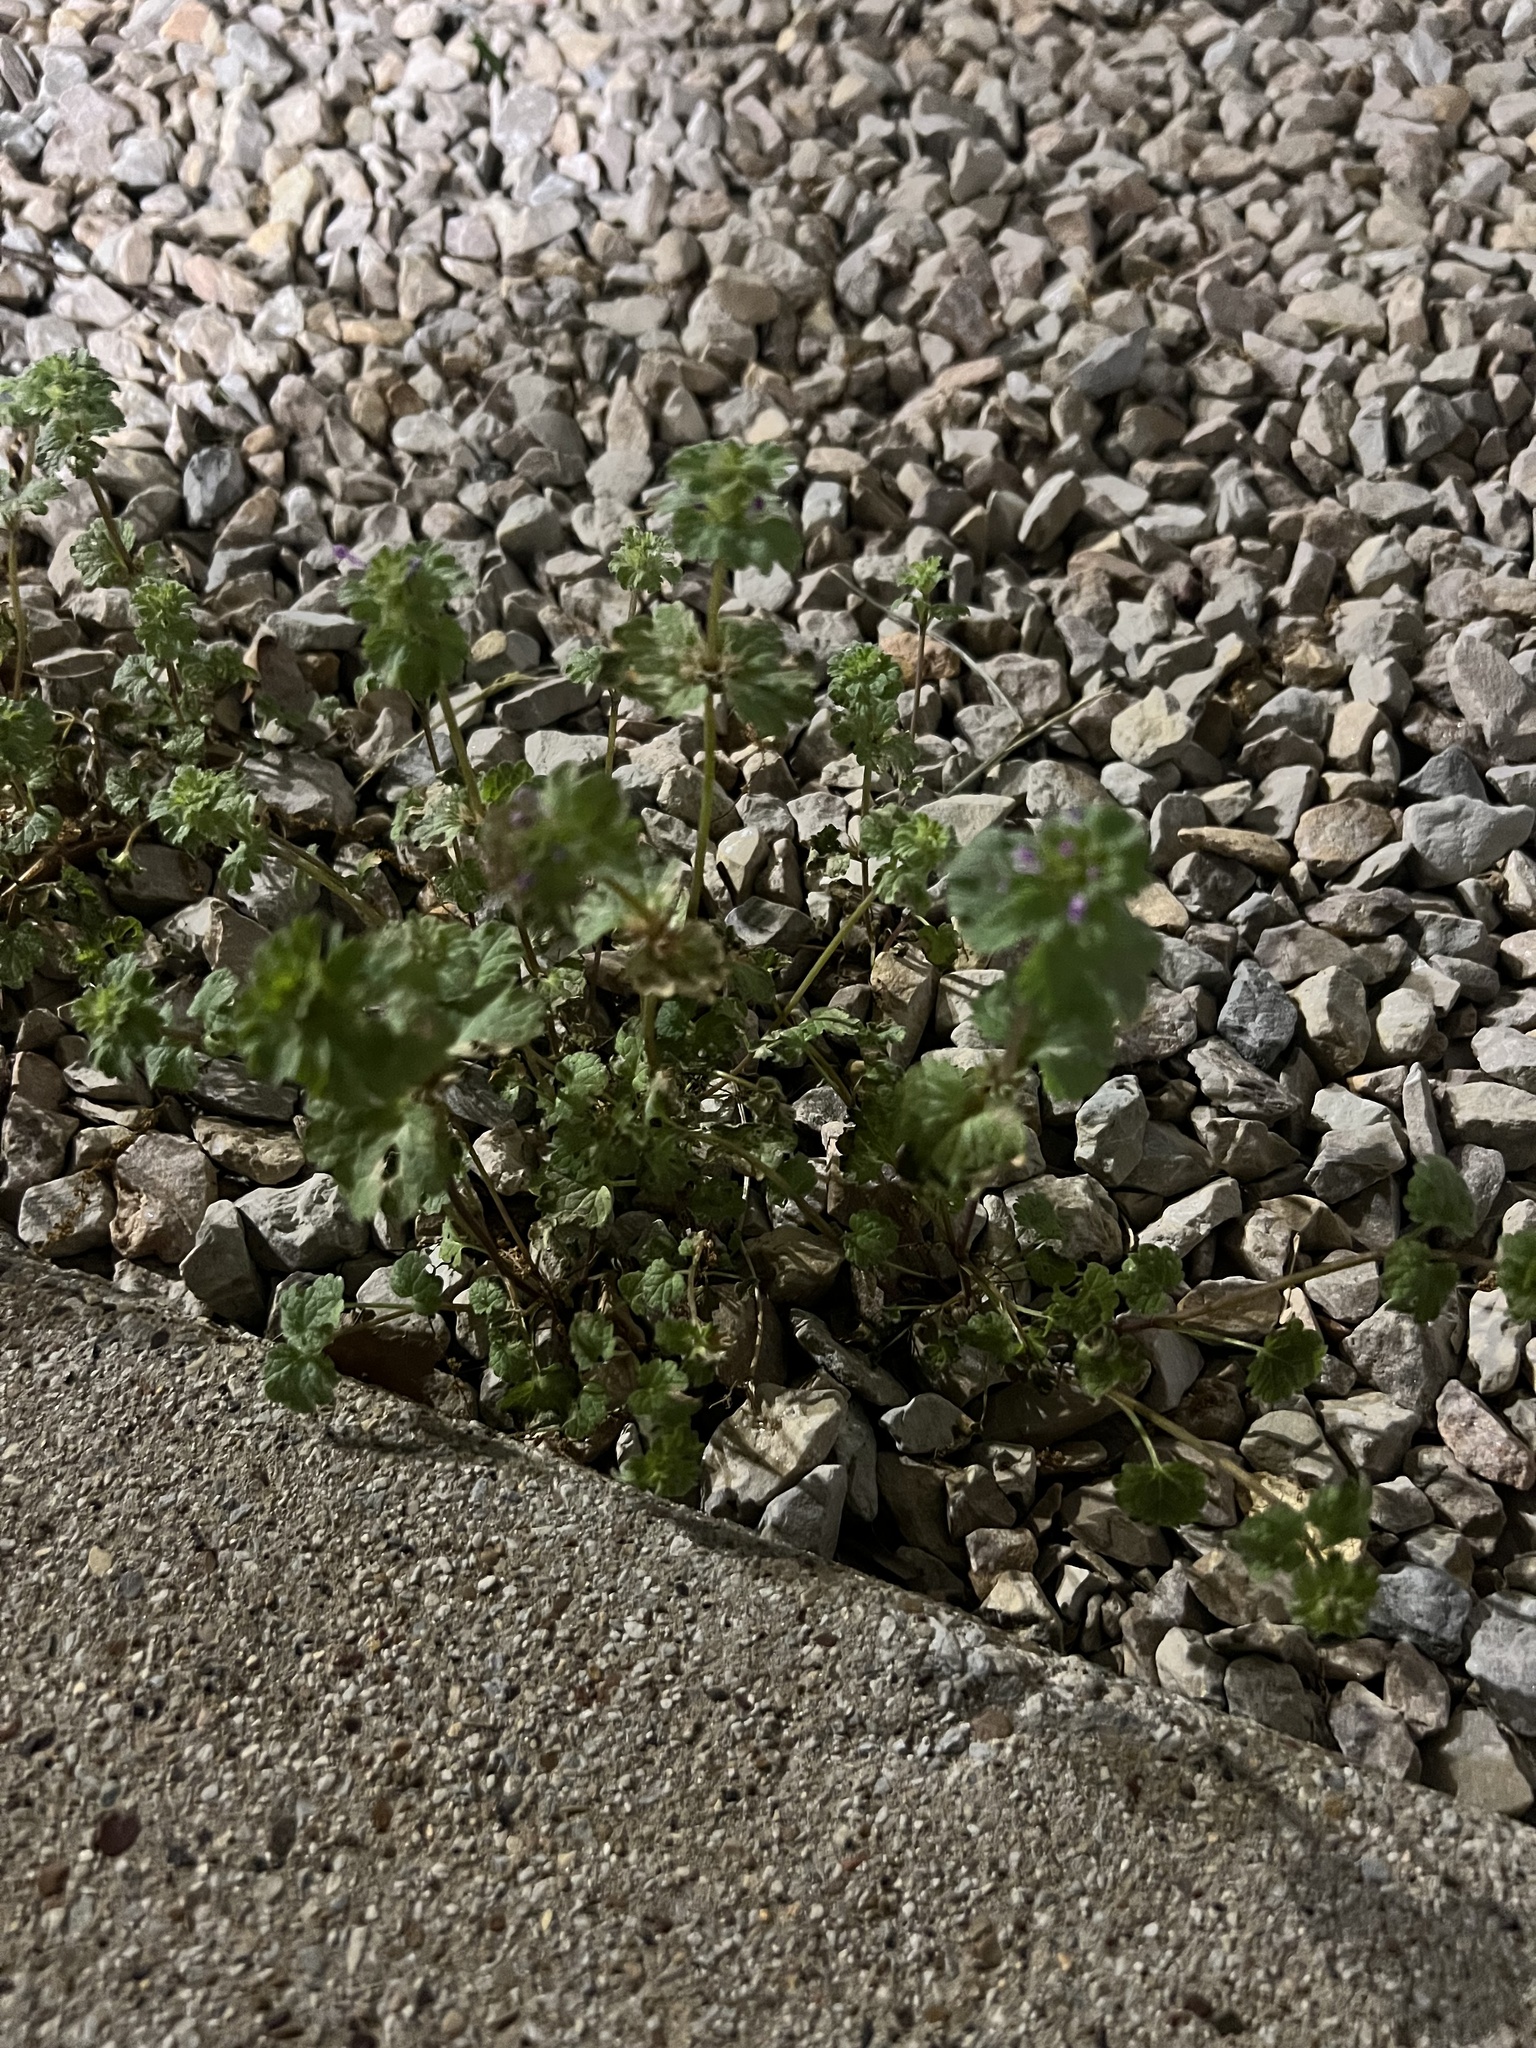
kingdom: Plantae
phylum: Tracheophyta
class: Magnoliopsida
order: Lamiales
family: Lamiaceae
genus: Lamium
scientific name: Lamium amplexicaule
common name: Henbit dead-nettle
